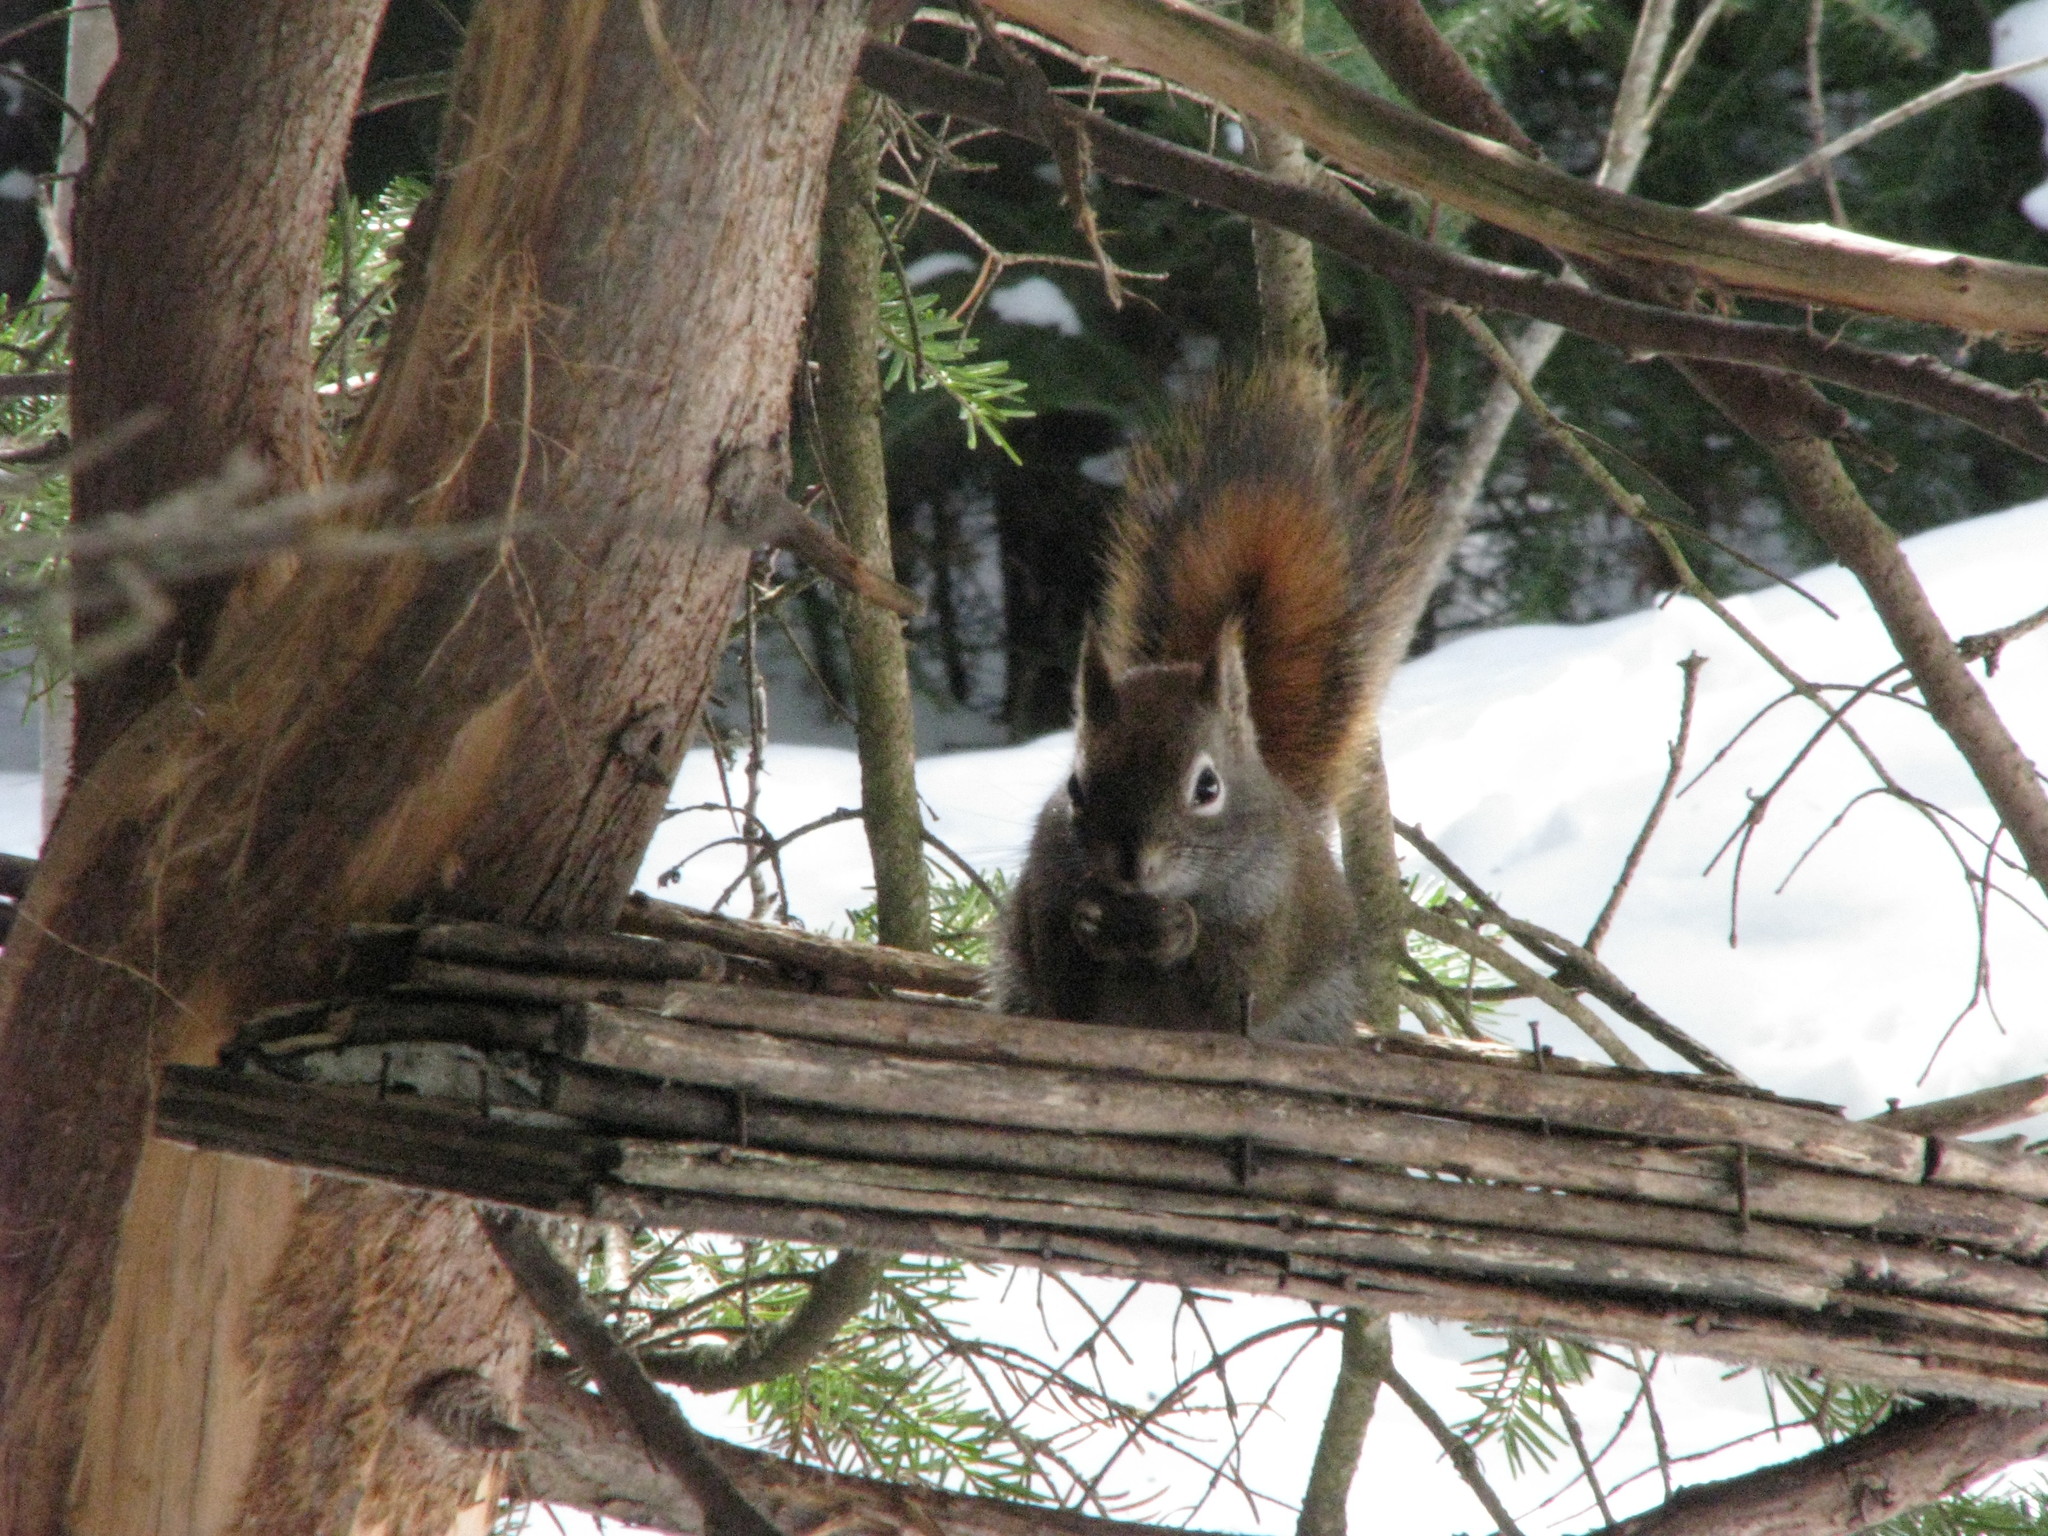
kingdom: Animalia
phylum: Chordata
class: Mammalia
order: Rodentia
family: Sciuridae
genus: Tamiasciurus
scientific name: Tamiasciurus hudsonicus
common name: Red squirrel
